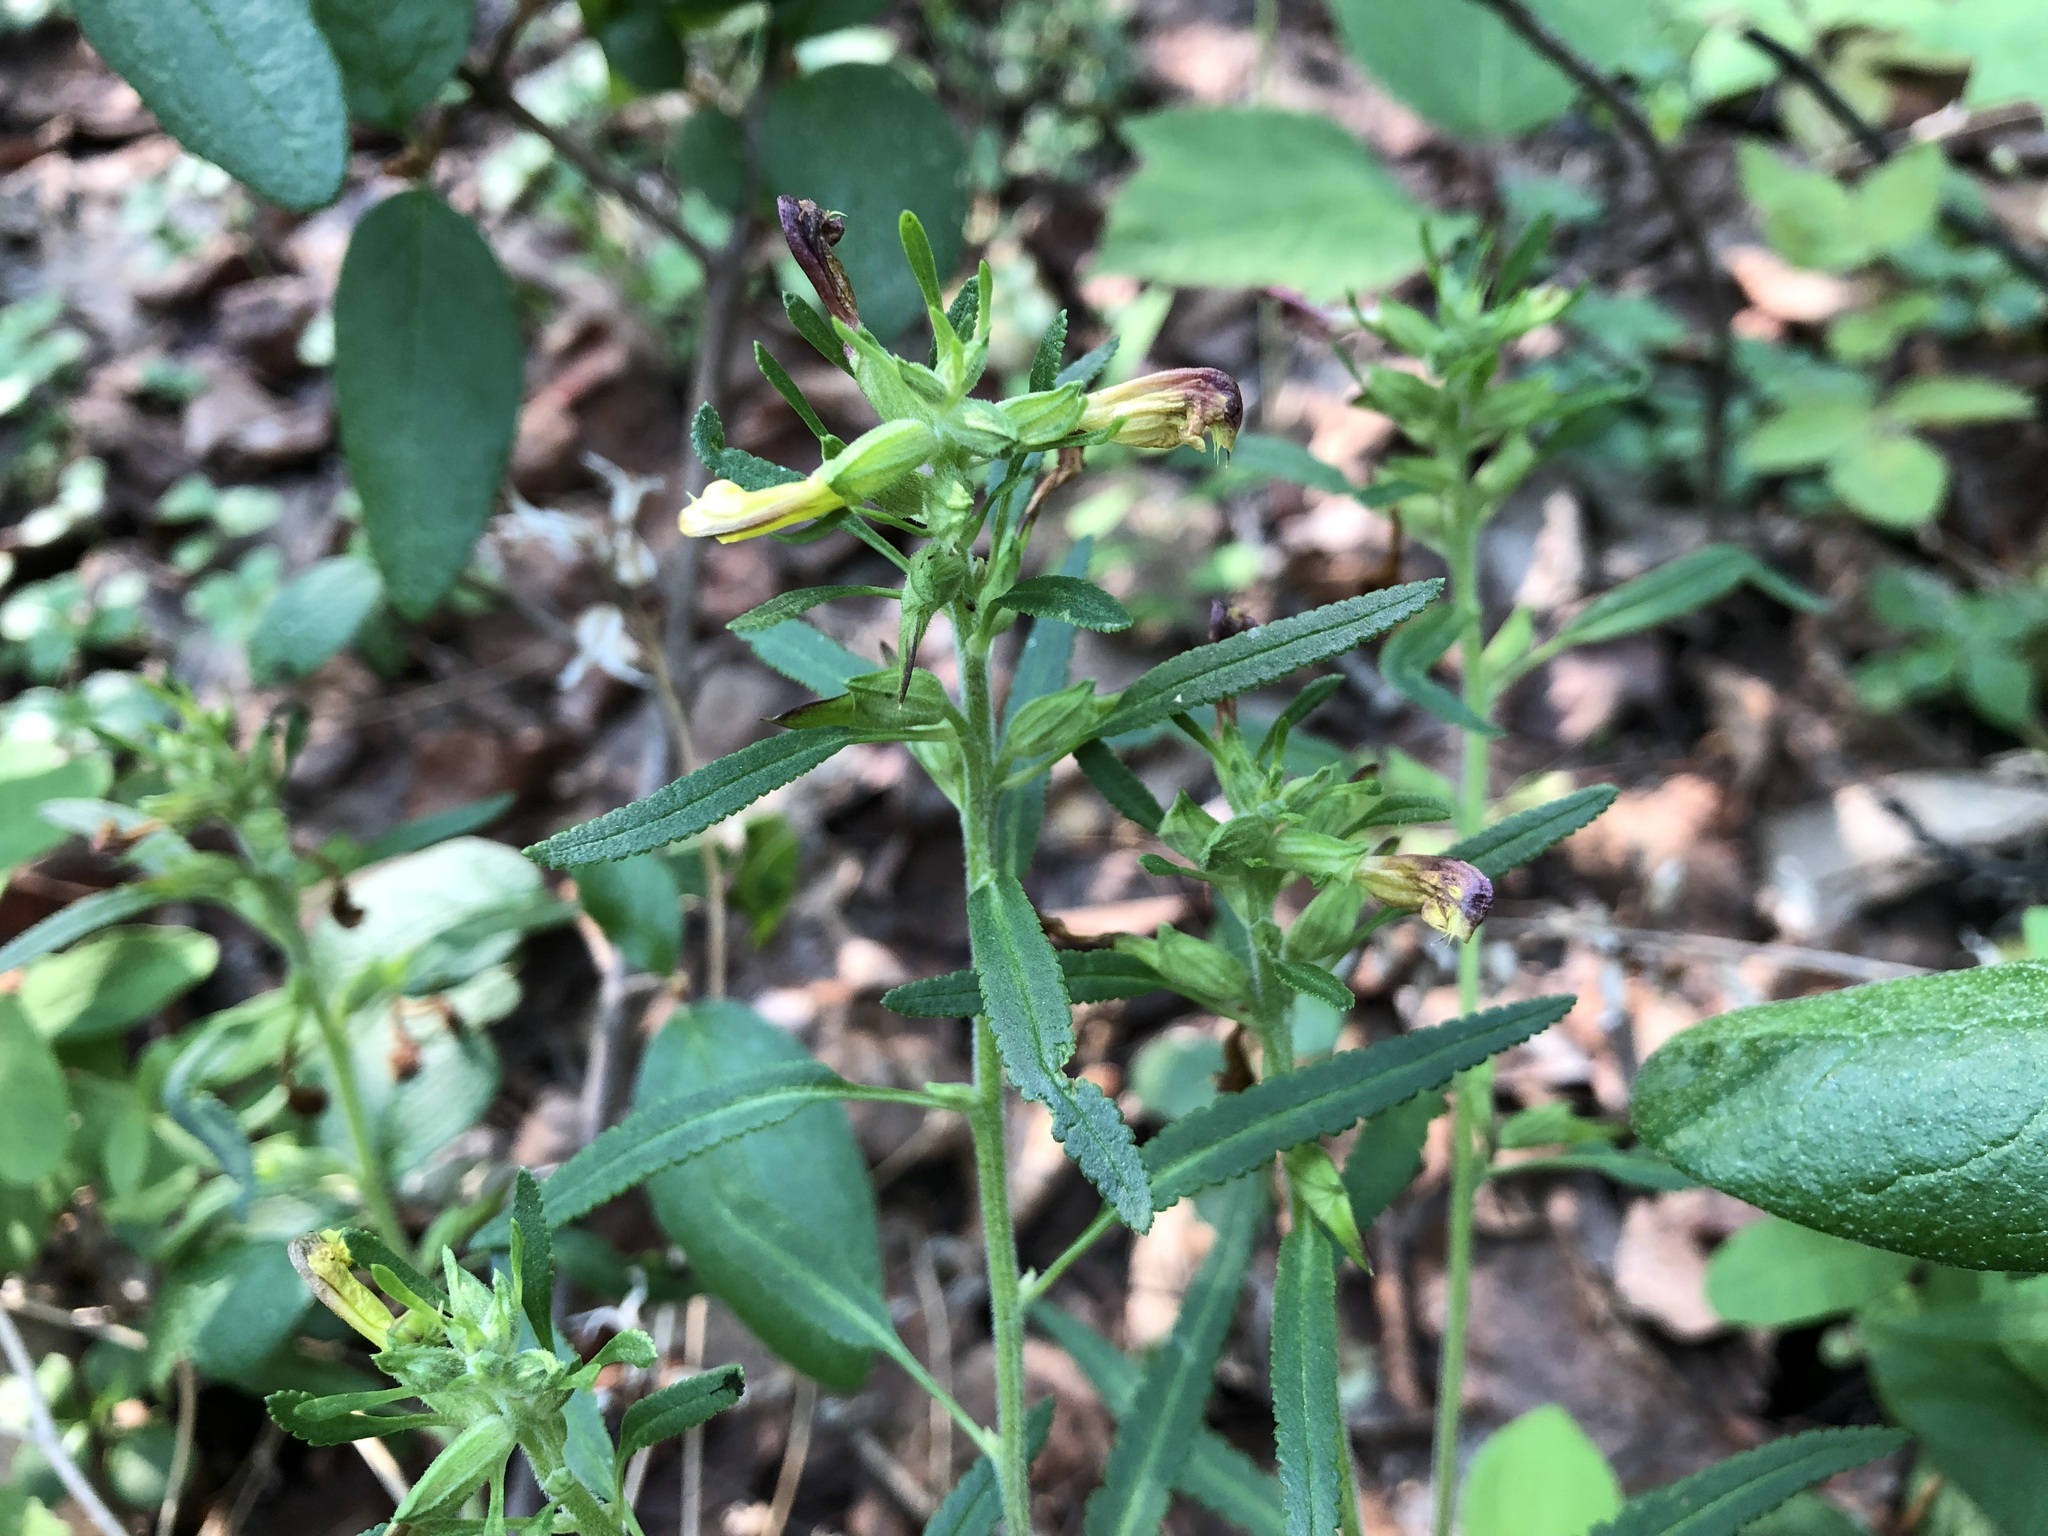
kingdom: Plantae
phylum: Tracheophyta
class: Magnoliopsida
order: Lamiales
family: Orobanchaceae
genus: Pedicularis
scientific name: Pedicularis labradorica
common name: Labrador lousewort
